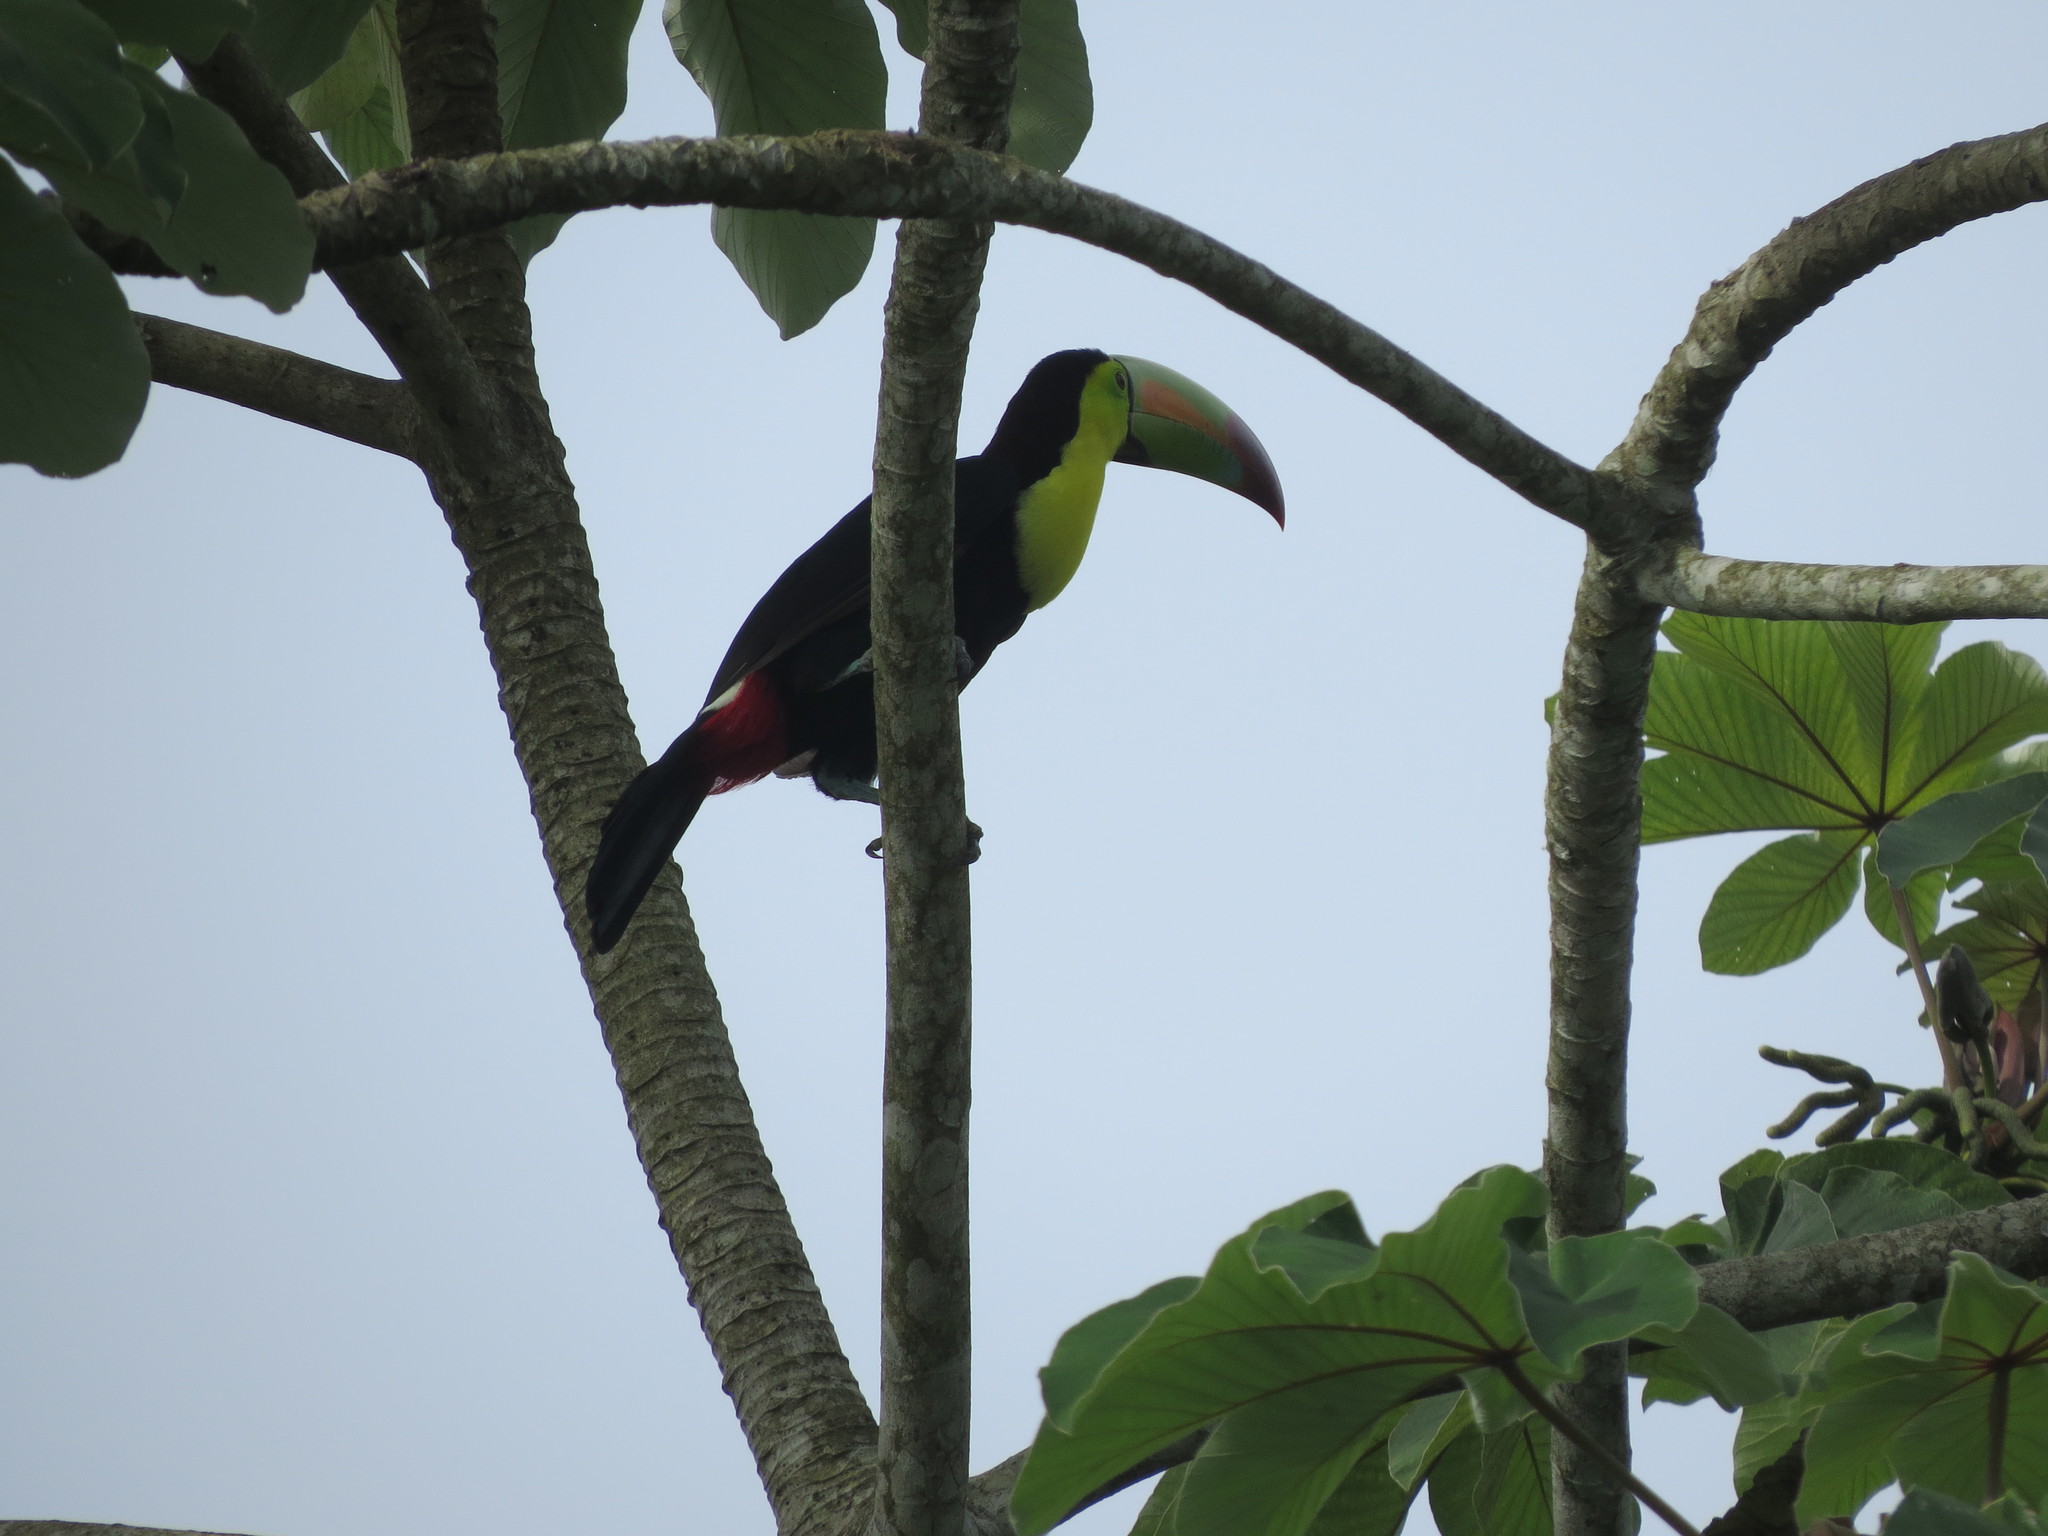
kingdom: Animalia
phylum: Chordata
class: Aves
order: Piciformes
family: Ramphastidae
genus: Ramphastos
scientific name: Ramphastos sulfuratus
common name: Keel-billed toucan
